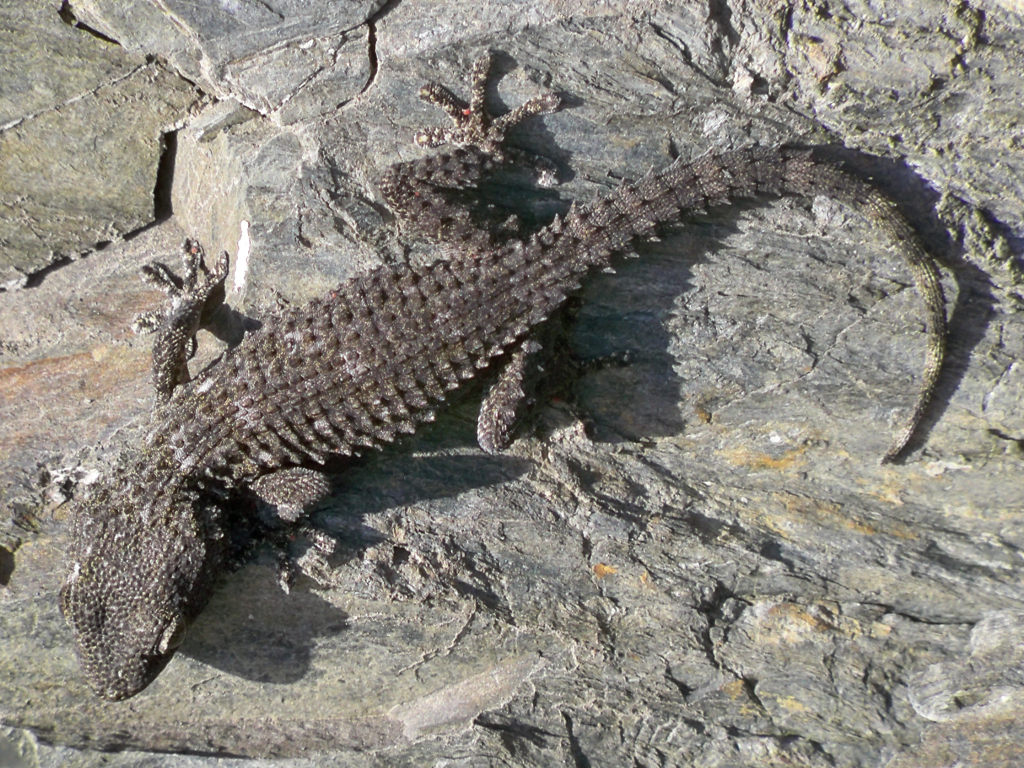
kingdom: Animalia
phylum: Chordata
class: Squamata
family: Phyllodactylidae
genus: Tarentola
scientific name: Tarentola mauritanica
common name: Moorish gecko
